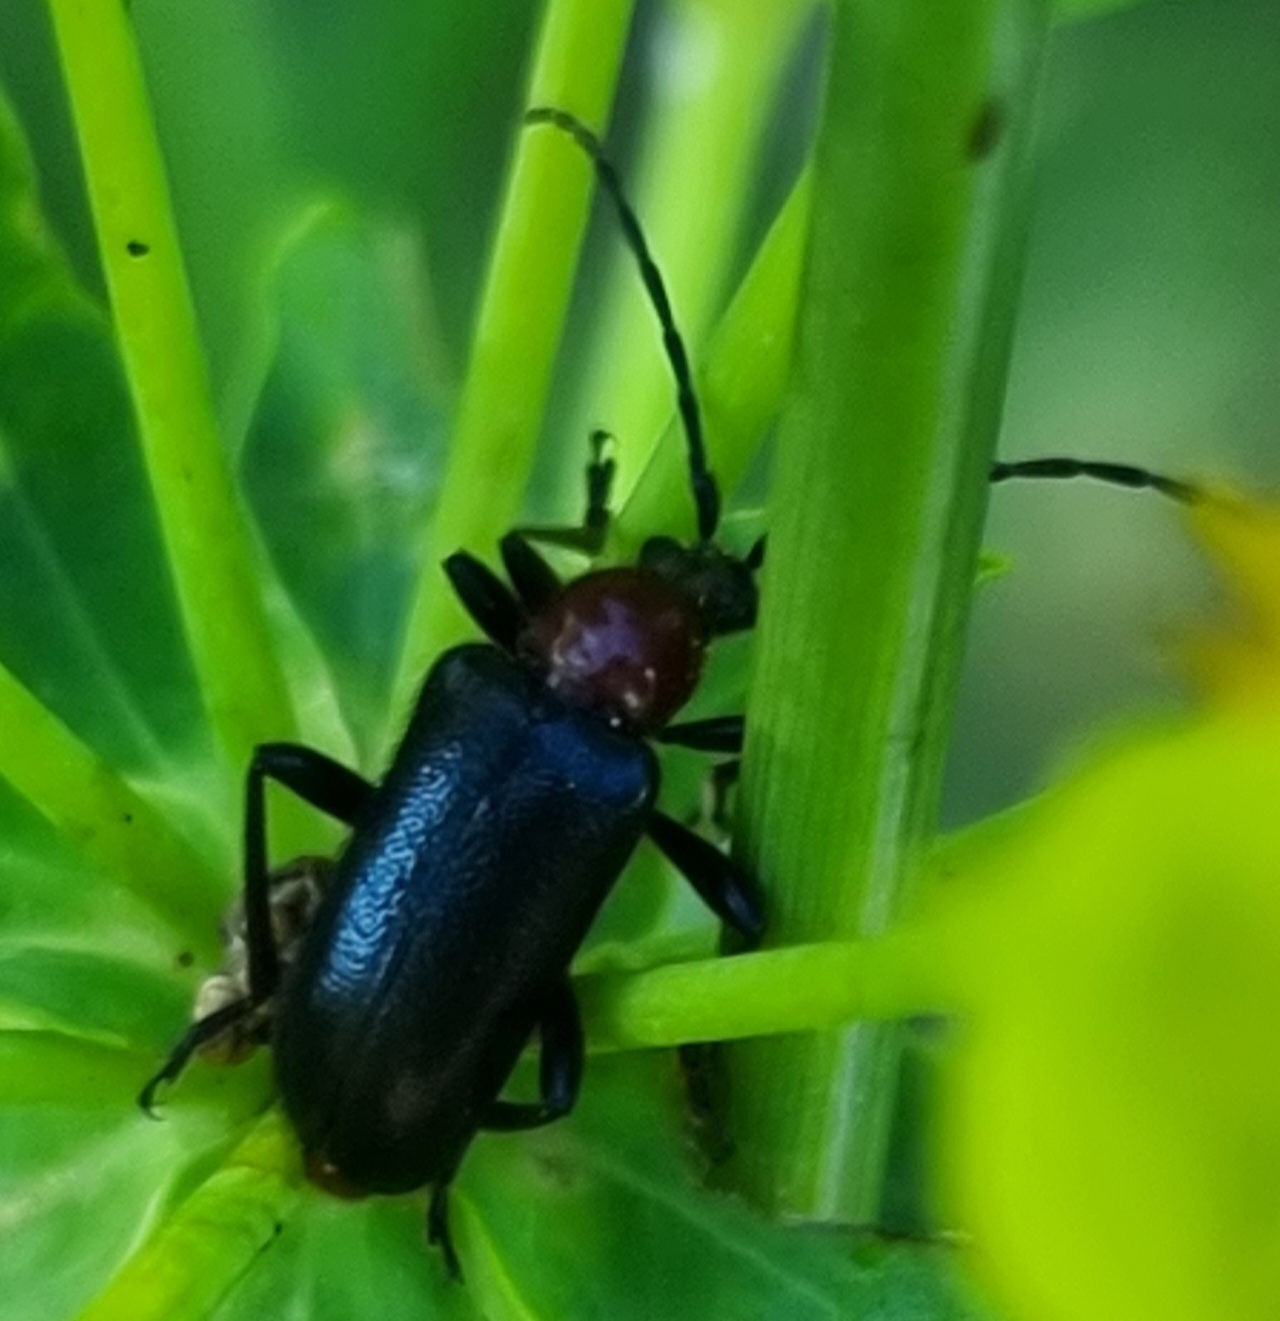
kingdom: Animalia
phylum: Arthropoda
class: Insecta
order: Coleoptera
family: Cerambycidae
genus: Gaurotes
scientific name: Gaurotes virginea
